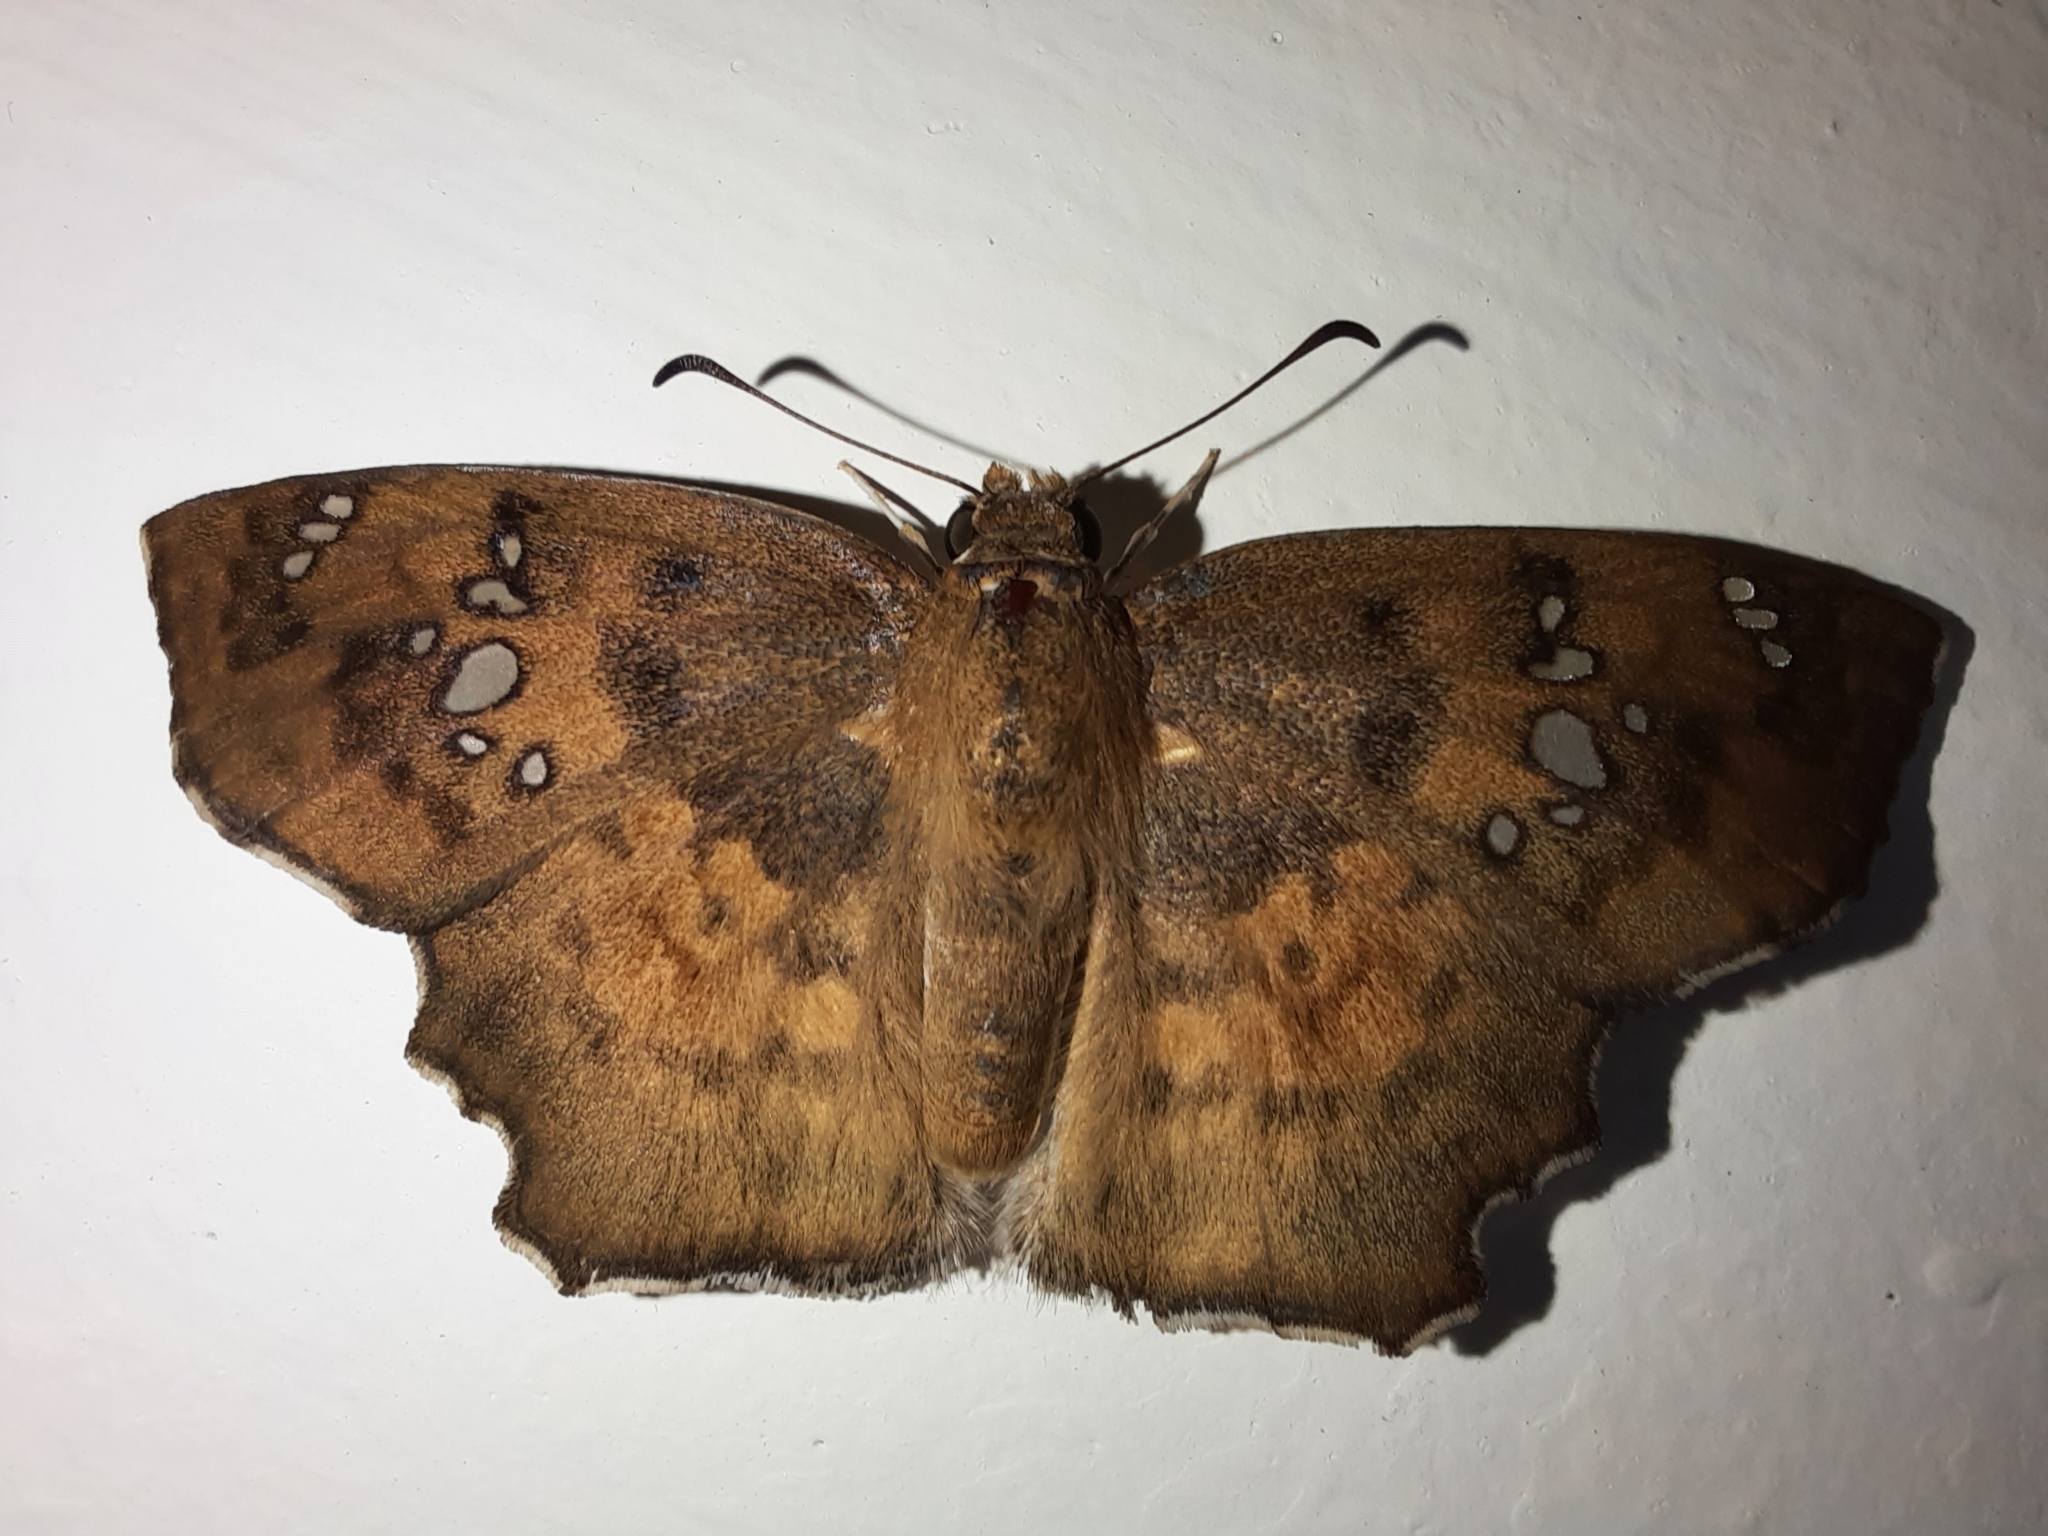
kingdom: Animalia
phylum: Arthropoda
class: Insecta
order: Lepidoptera
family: Hesperiidae
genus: Caprona
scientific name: Caprona ransonnettii
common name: Golden angle
